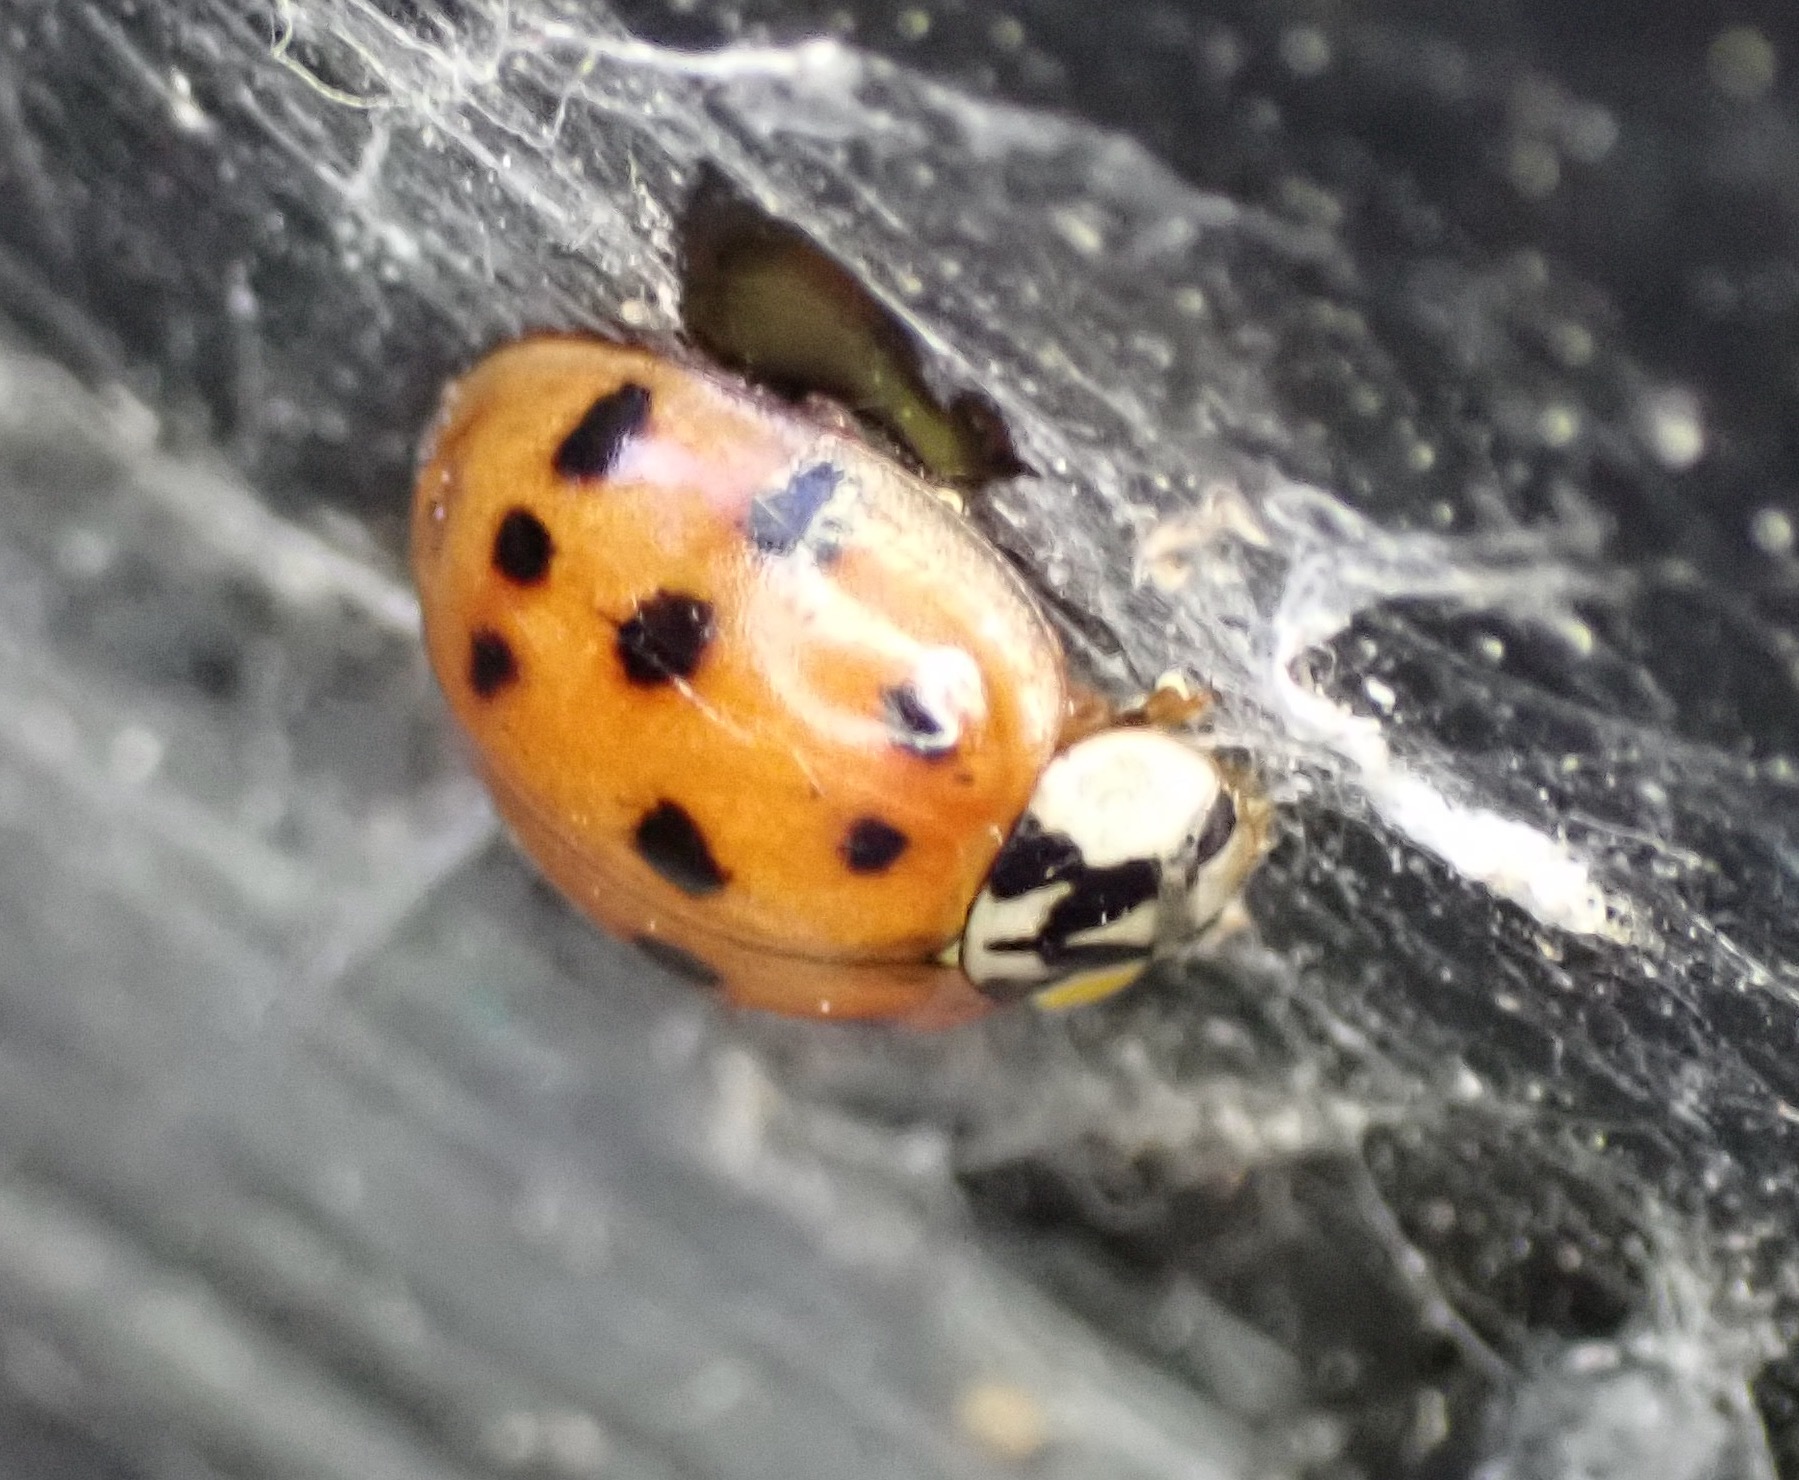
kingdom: Animalia
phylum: Arthropoda
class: Insecta
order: Coleoptera
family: Coccinellidae
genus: Harmonia
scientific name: Harmonia axyridis
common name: Harlequin ladybird
